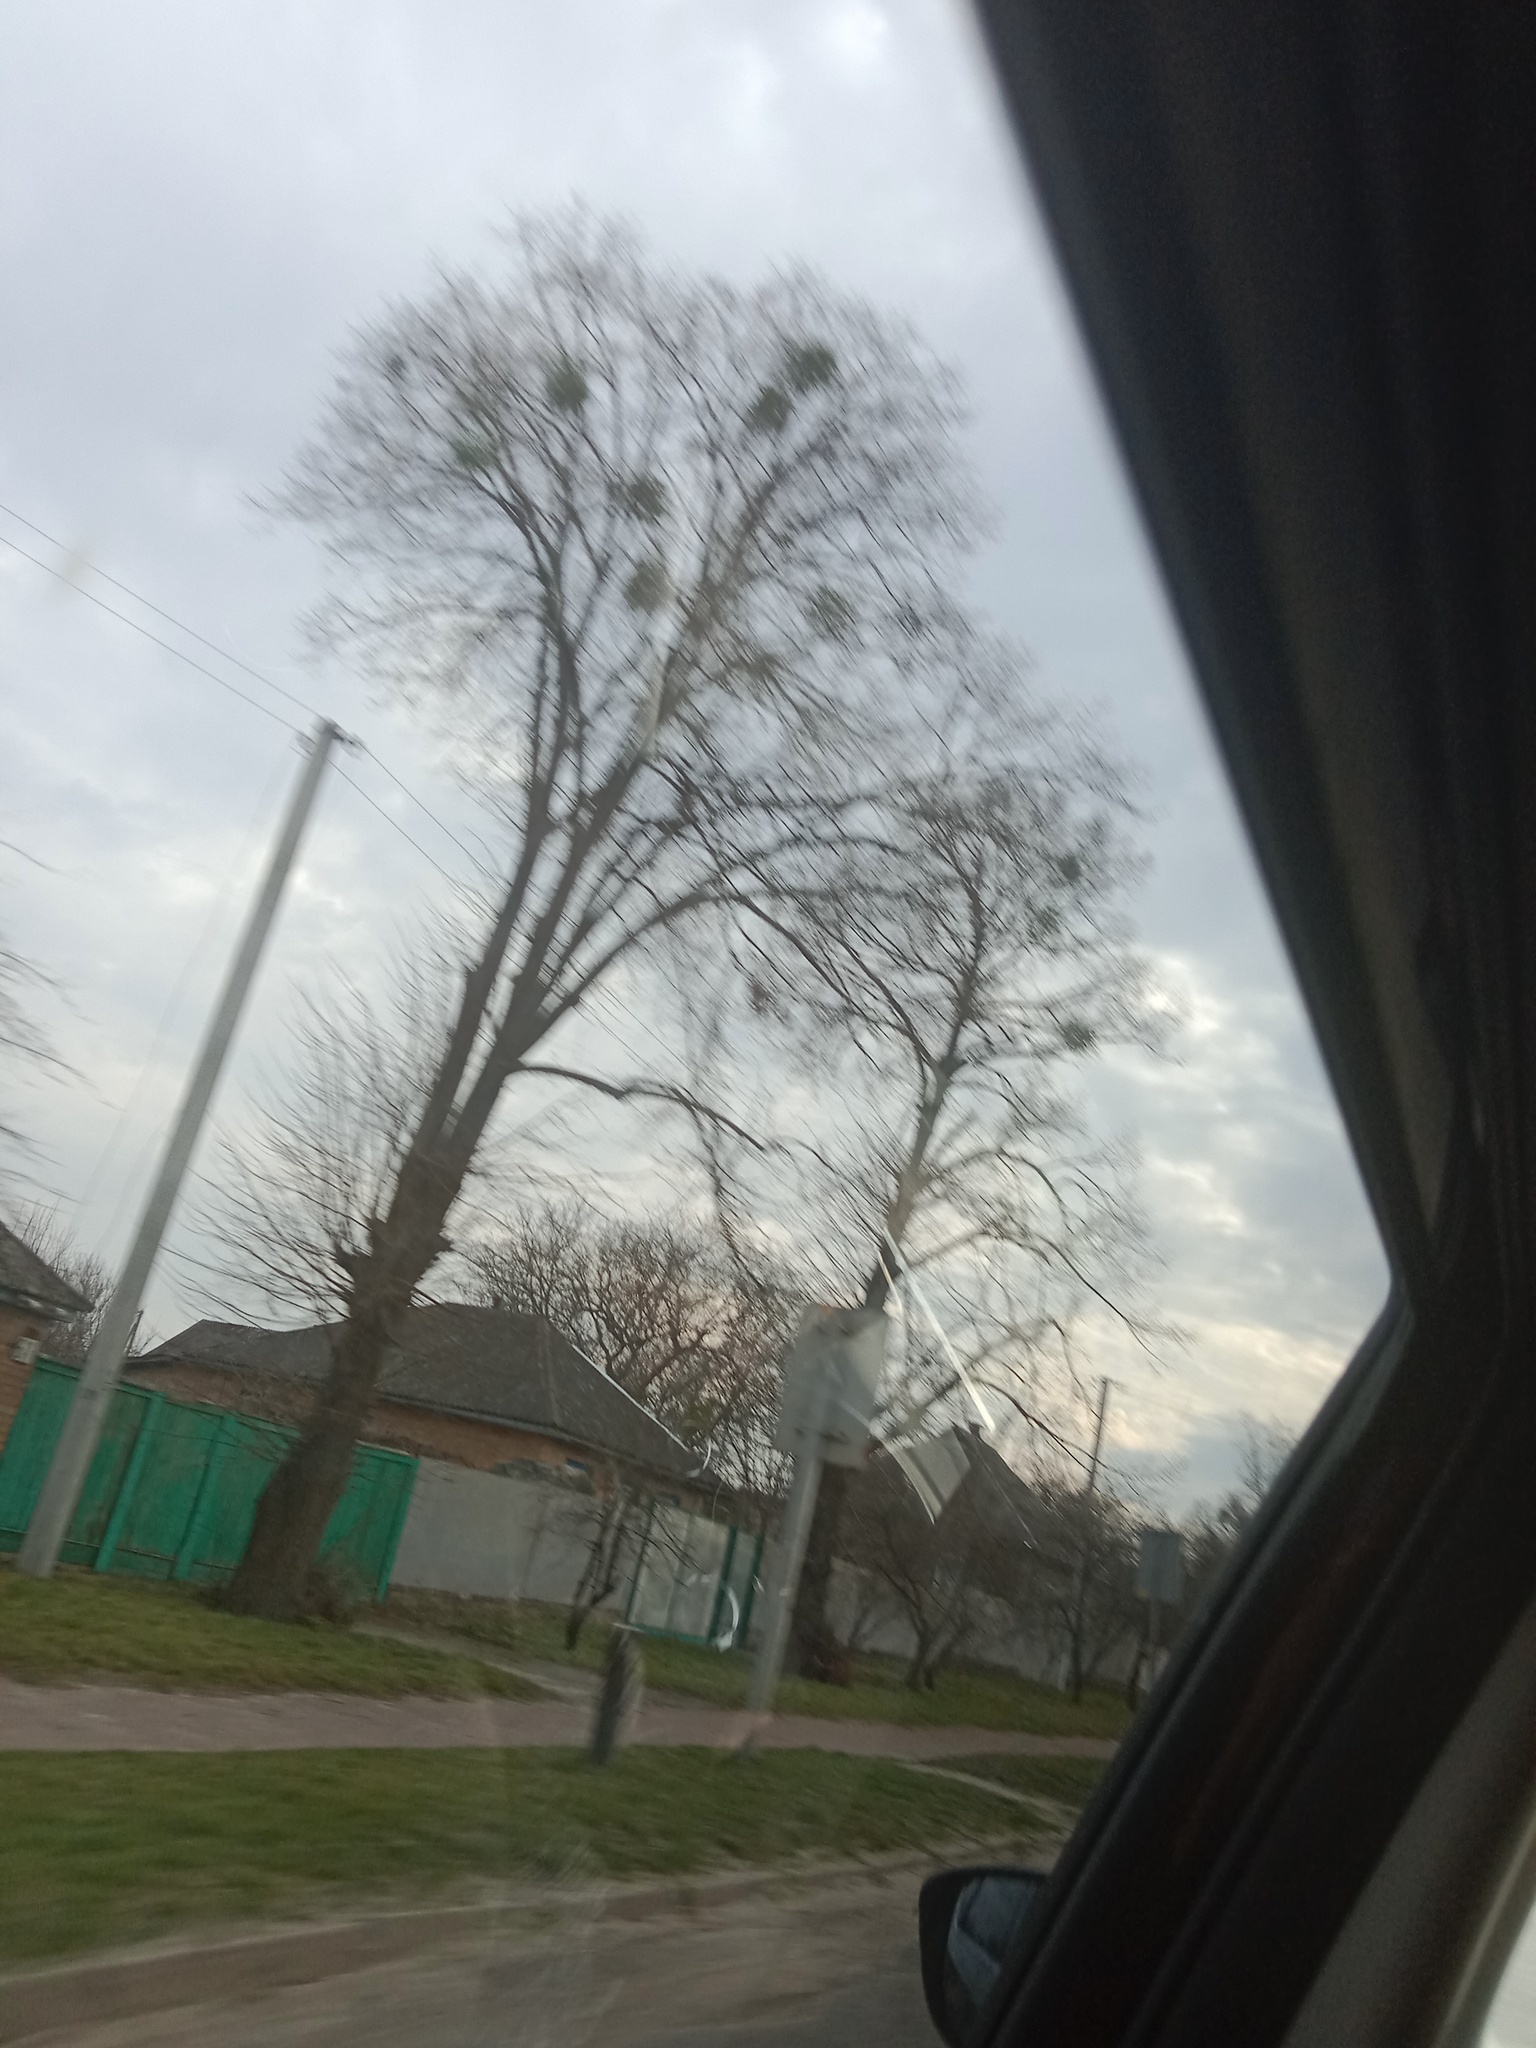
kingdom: Plantae
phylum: Tracheophyta
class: Magnoliopsida
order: Santalales
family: Viscaceae
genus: Viscum
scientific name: Viscum album
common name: Mistletoe
